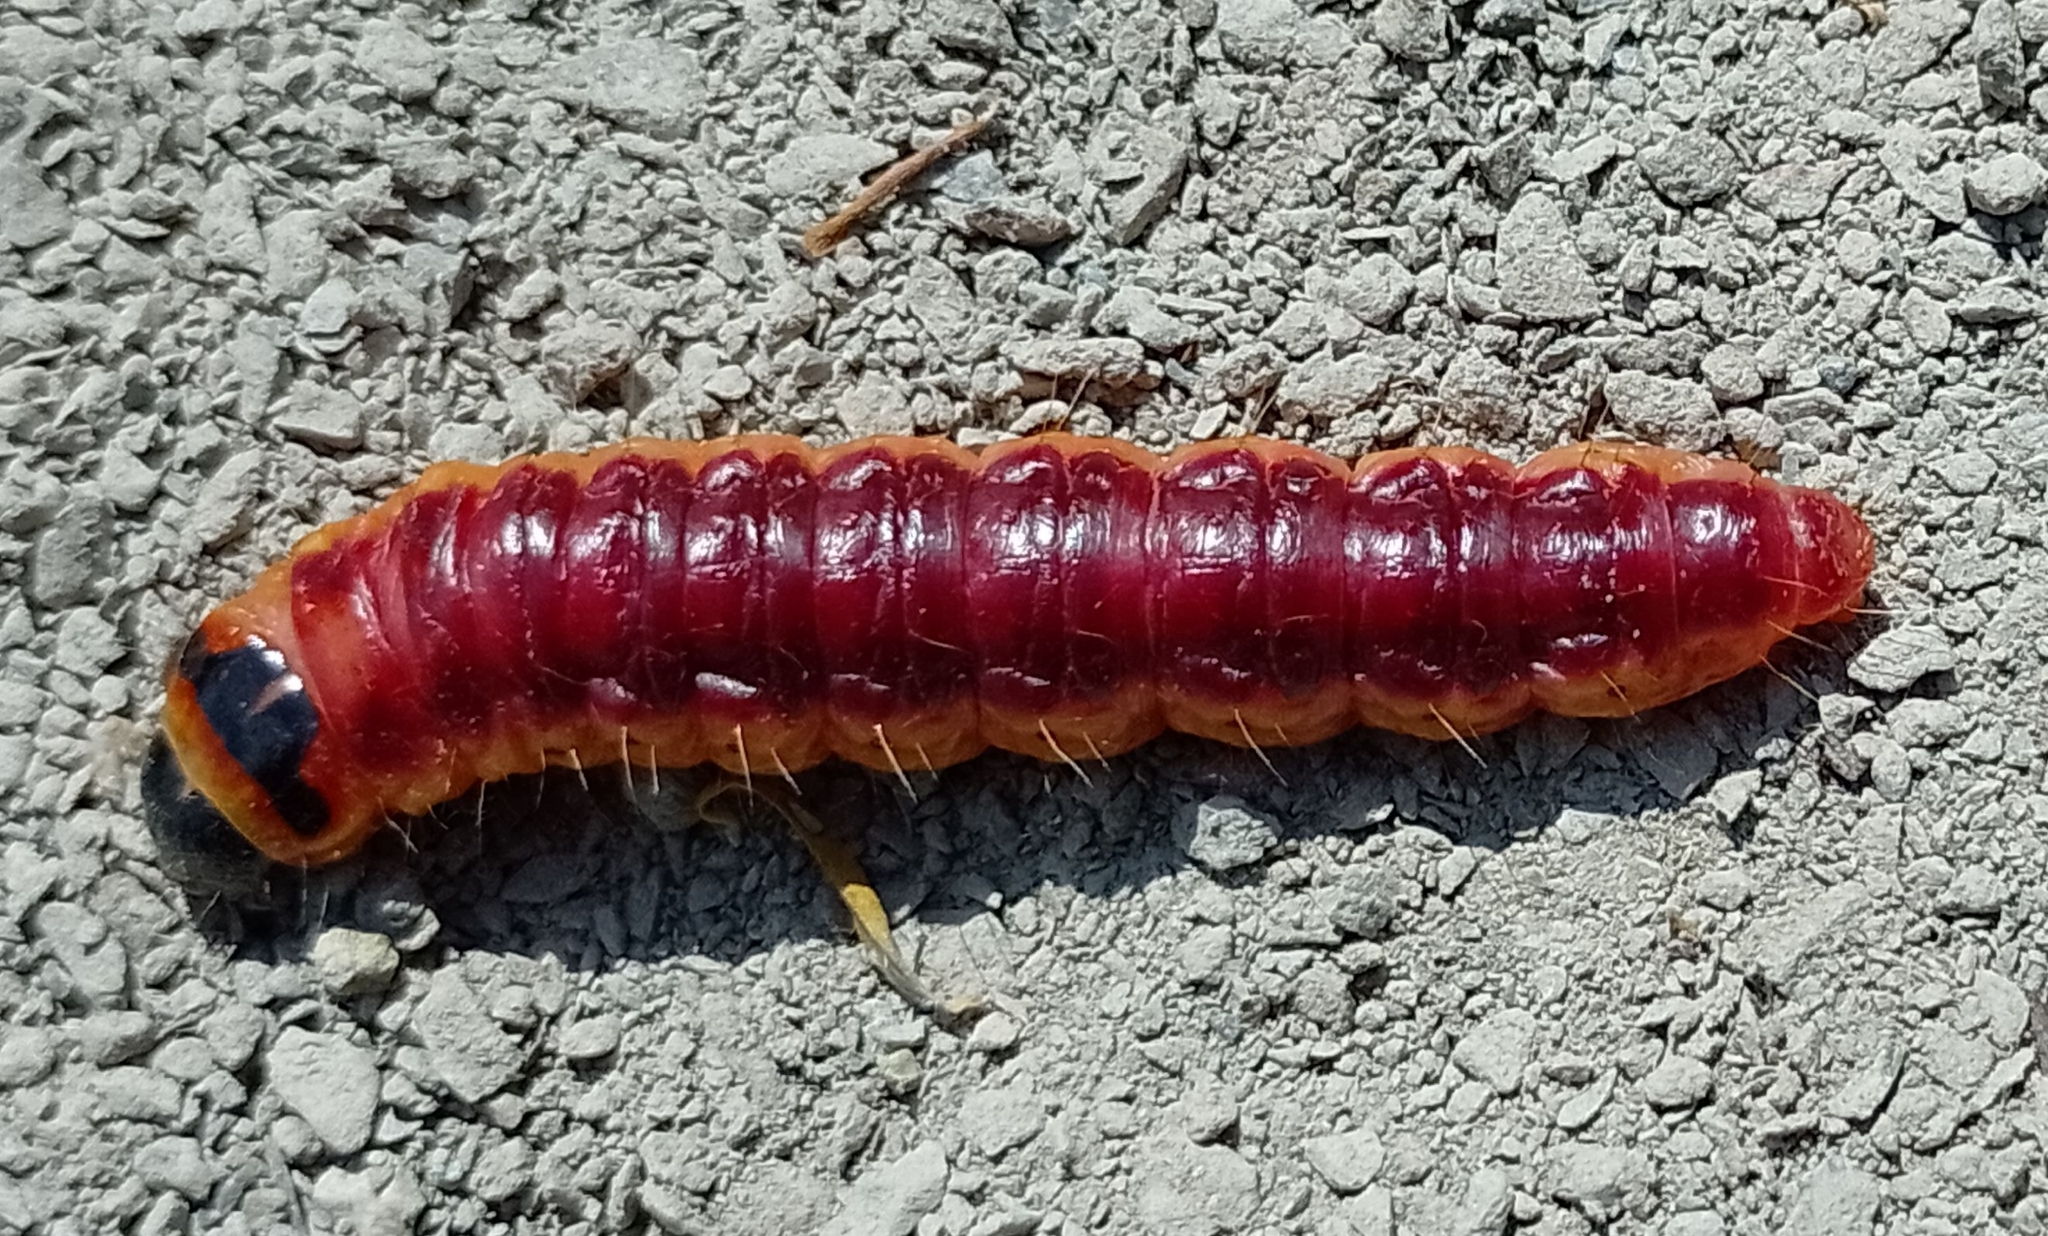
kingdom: Animalia
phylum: Arthropoda
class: Insecta
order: Lepidoptera
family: Cossidae
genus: Cossus
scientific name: Cossus cossus
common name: Goat moth
